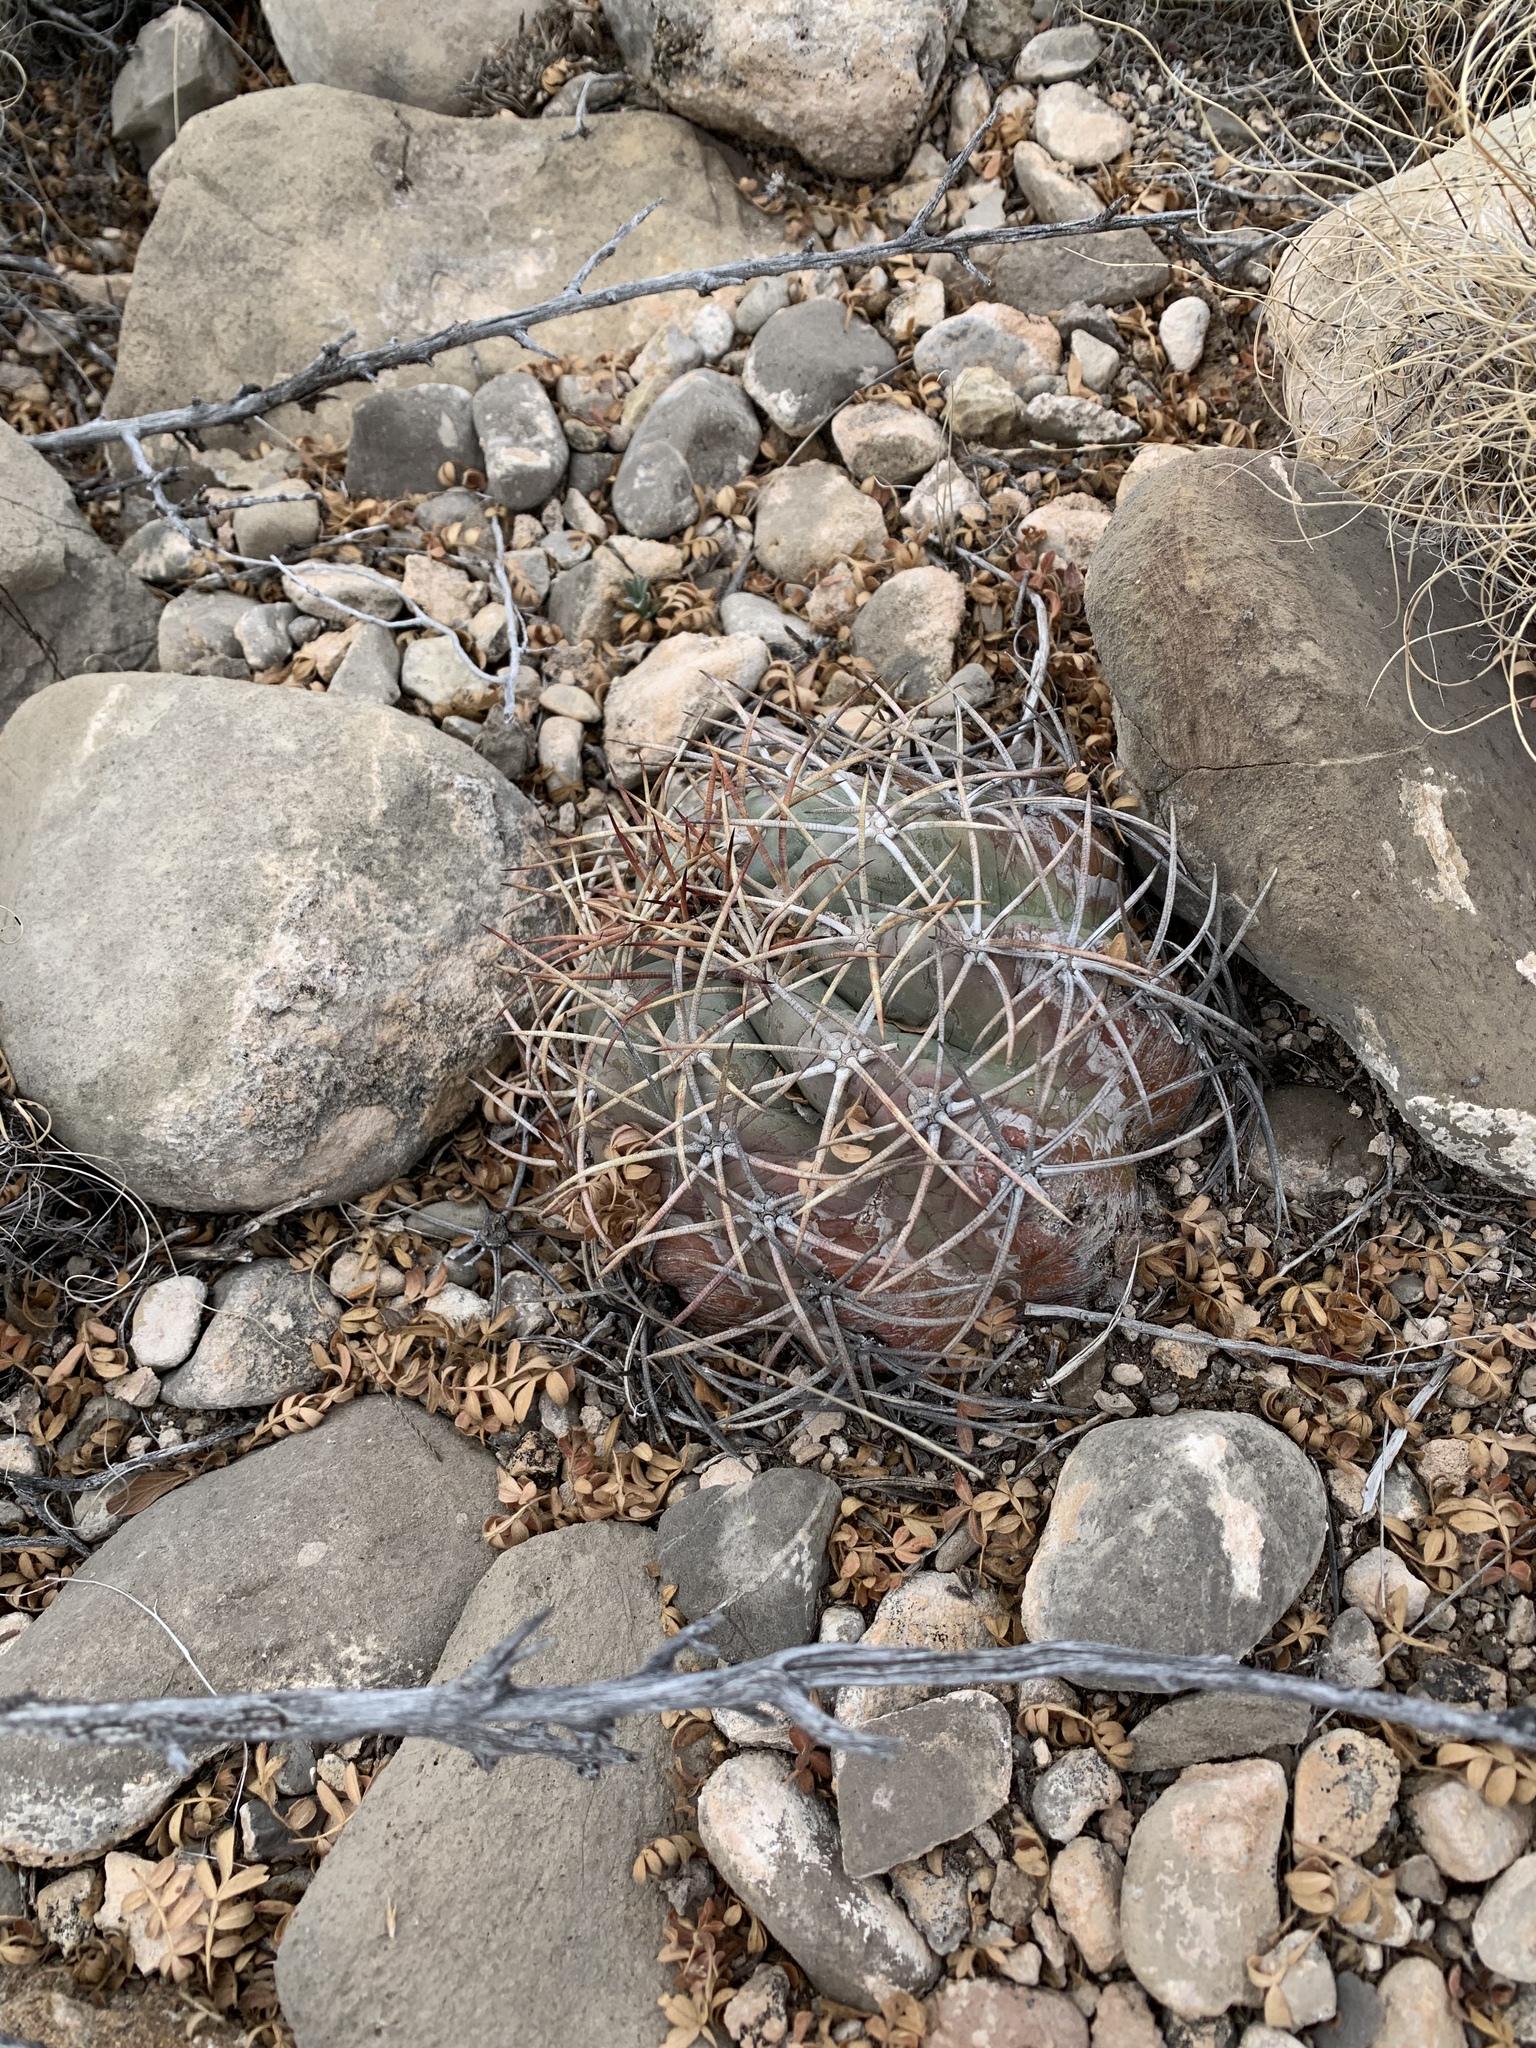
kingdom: Plantae
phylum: Tracheophyta
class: Magnoliopsida
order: Caryophyllales
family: Cactaceae
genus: Echinocactus
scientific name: Echinocactus horizonthalonius
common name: Devilshead
